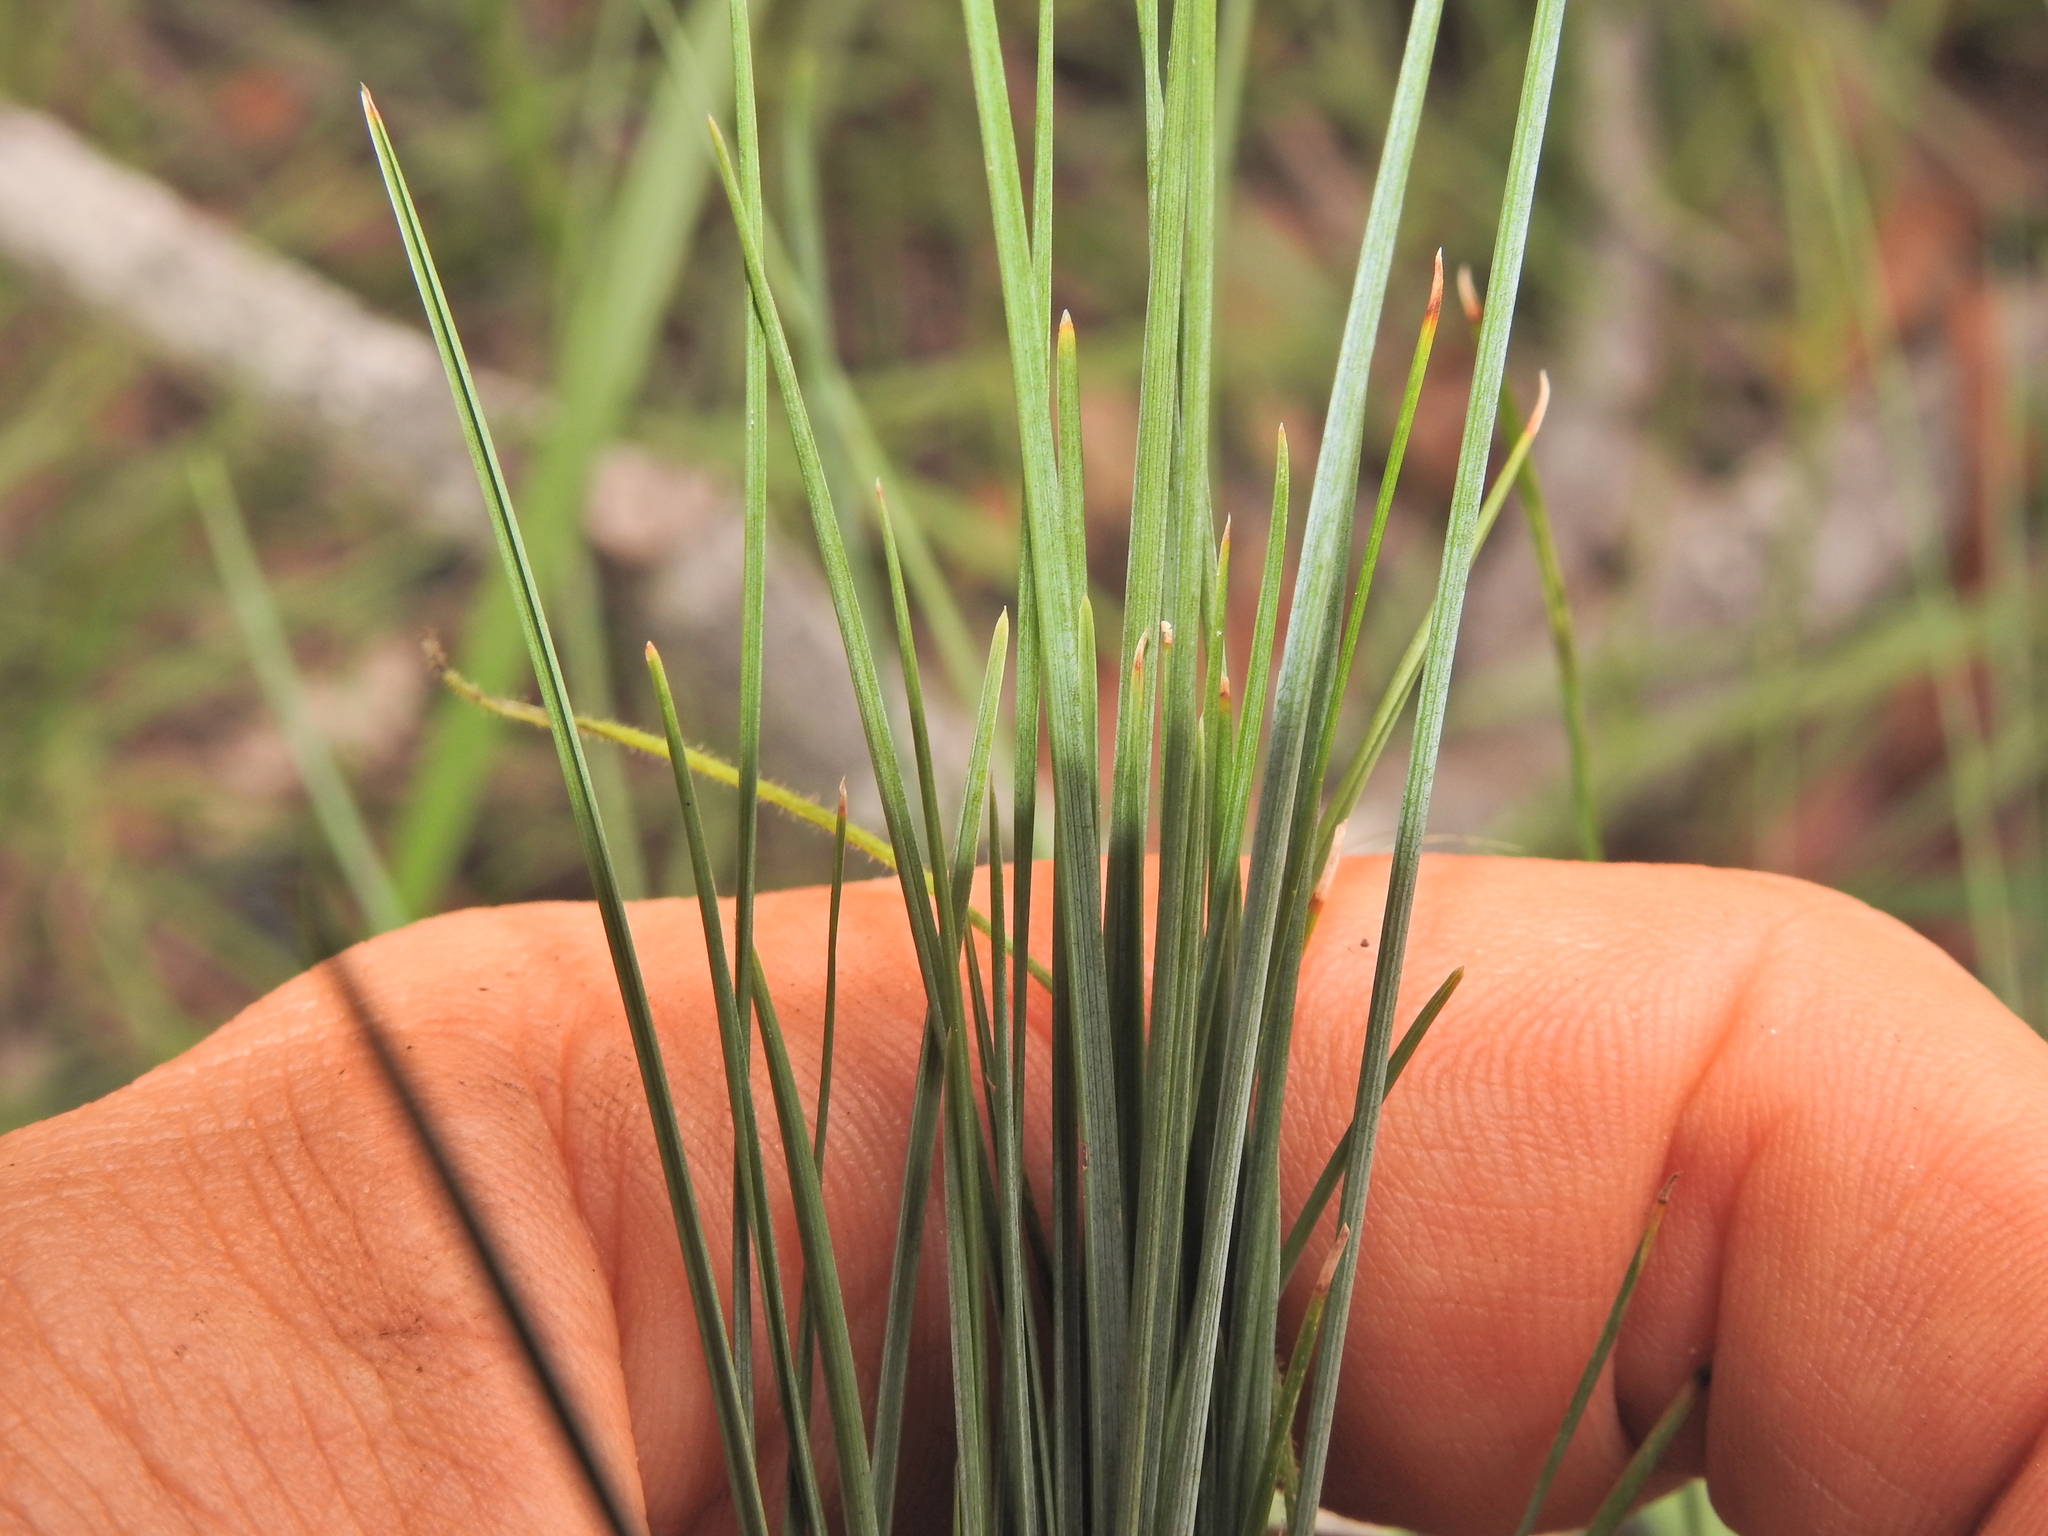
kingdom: Plantae
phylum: Tracheophyta
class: Liliopsida
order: Asparagales
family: Asparagaceae
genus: Lomandra
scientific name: Lomandra filiformis
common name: Wattle mat-rush
